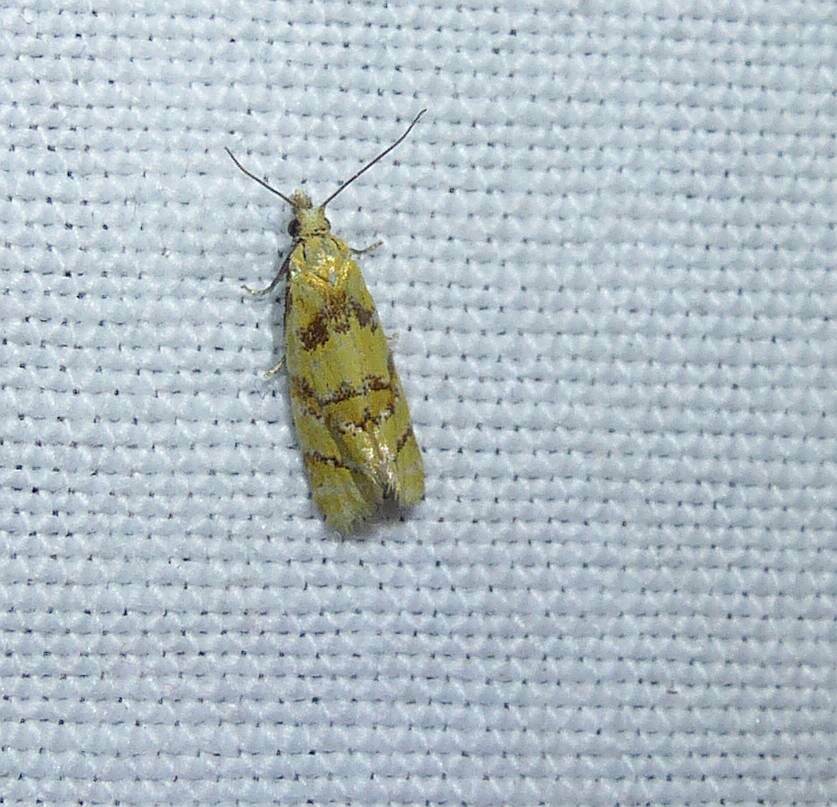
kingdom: Animalia
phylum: Arthropoda
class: Insecta
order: Lepidoptera
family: Tortricidae
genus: Phtheochroa
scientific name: Phtheochroa vitellinana
